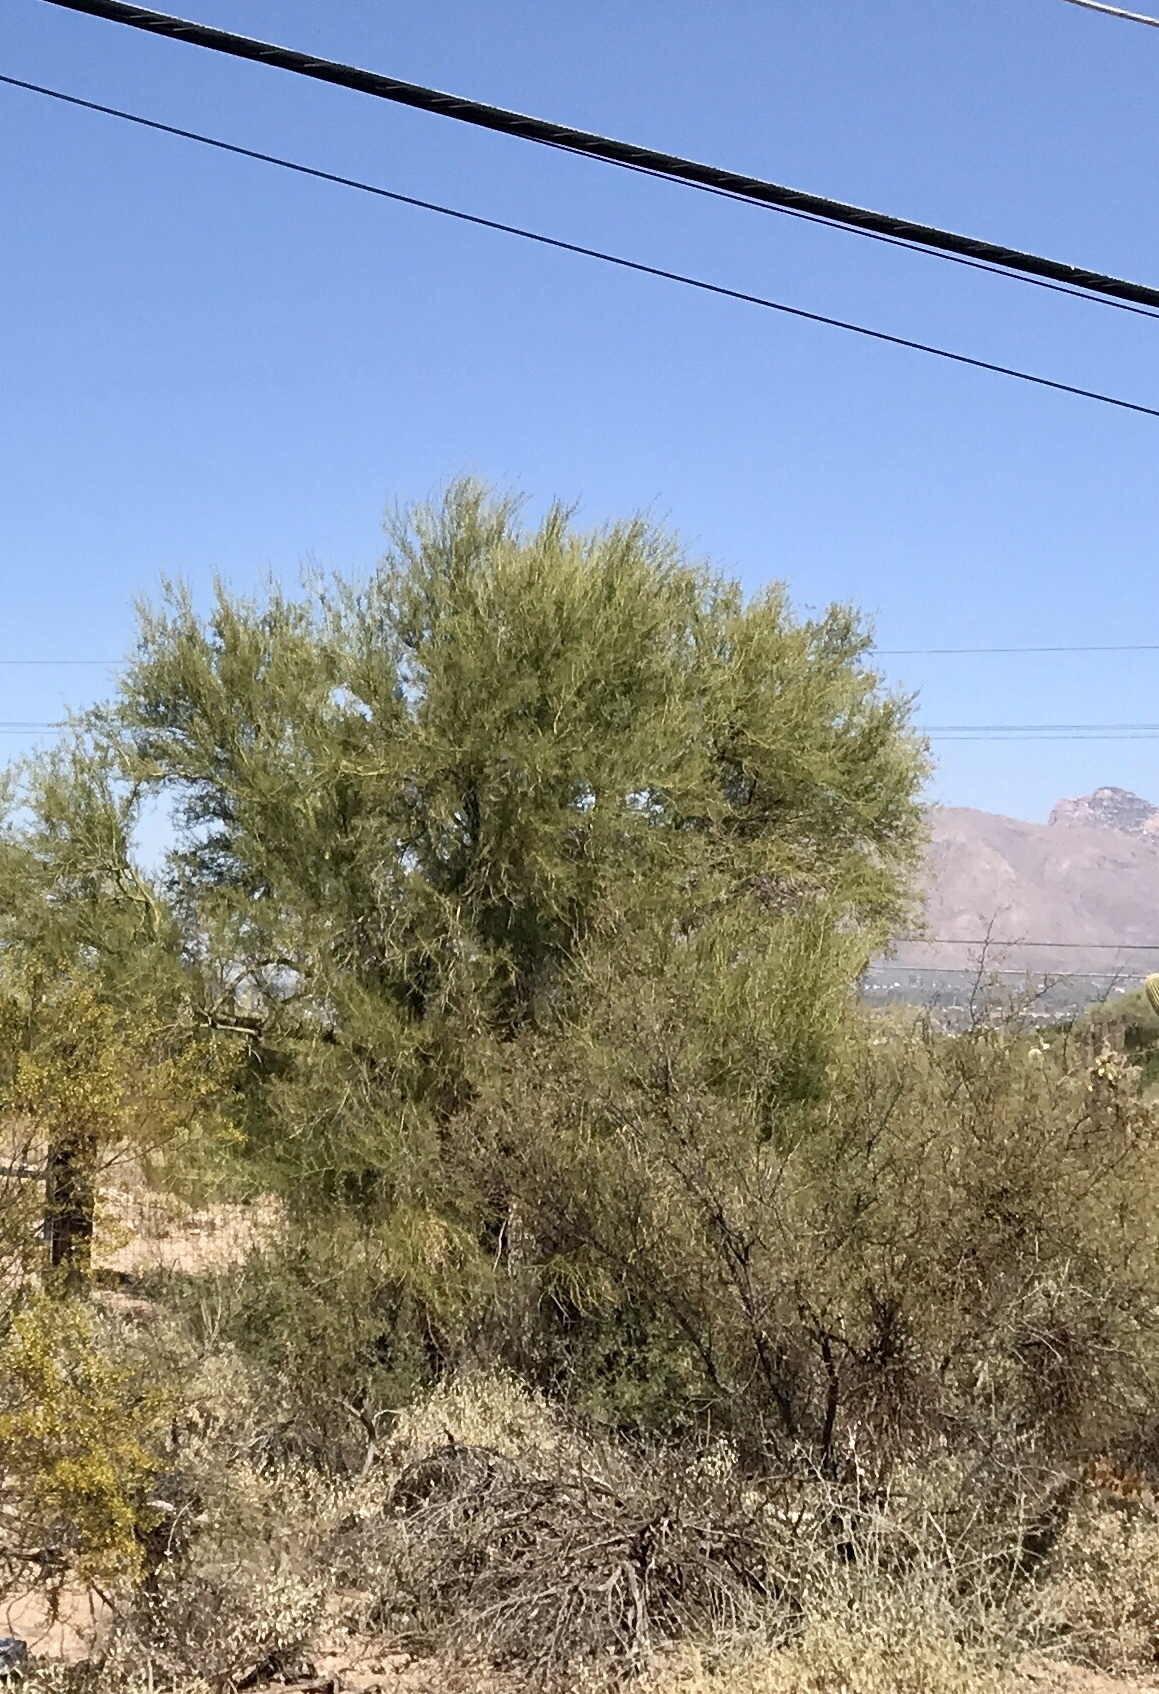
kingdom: Plantae
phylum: Tracheophyta
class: Magnoliopsida
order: Fabales
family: Fabaceae
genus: Parkinsonia
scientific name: Parkinsonia microphylla
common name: Yellow paloverde
